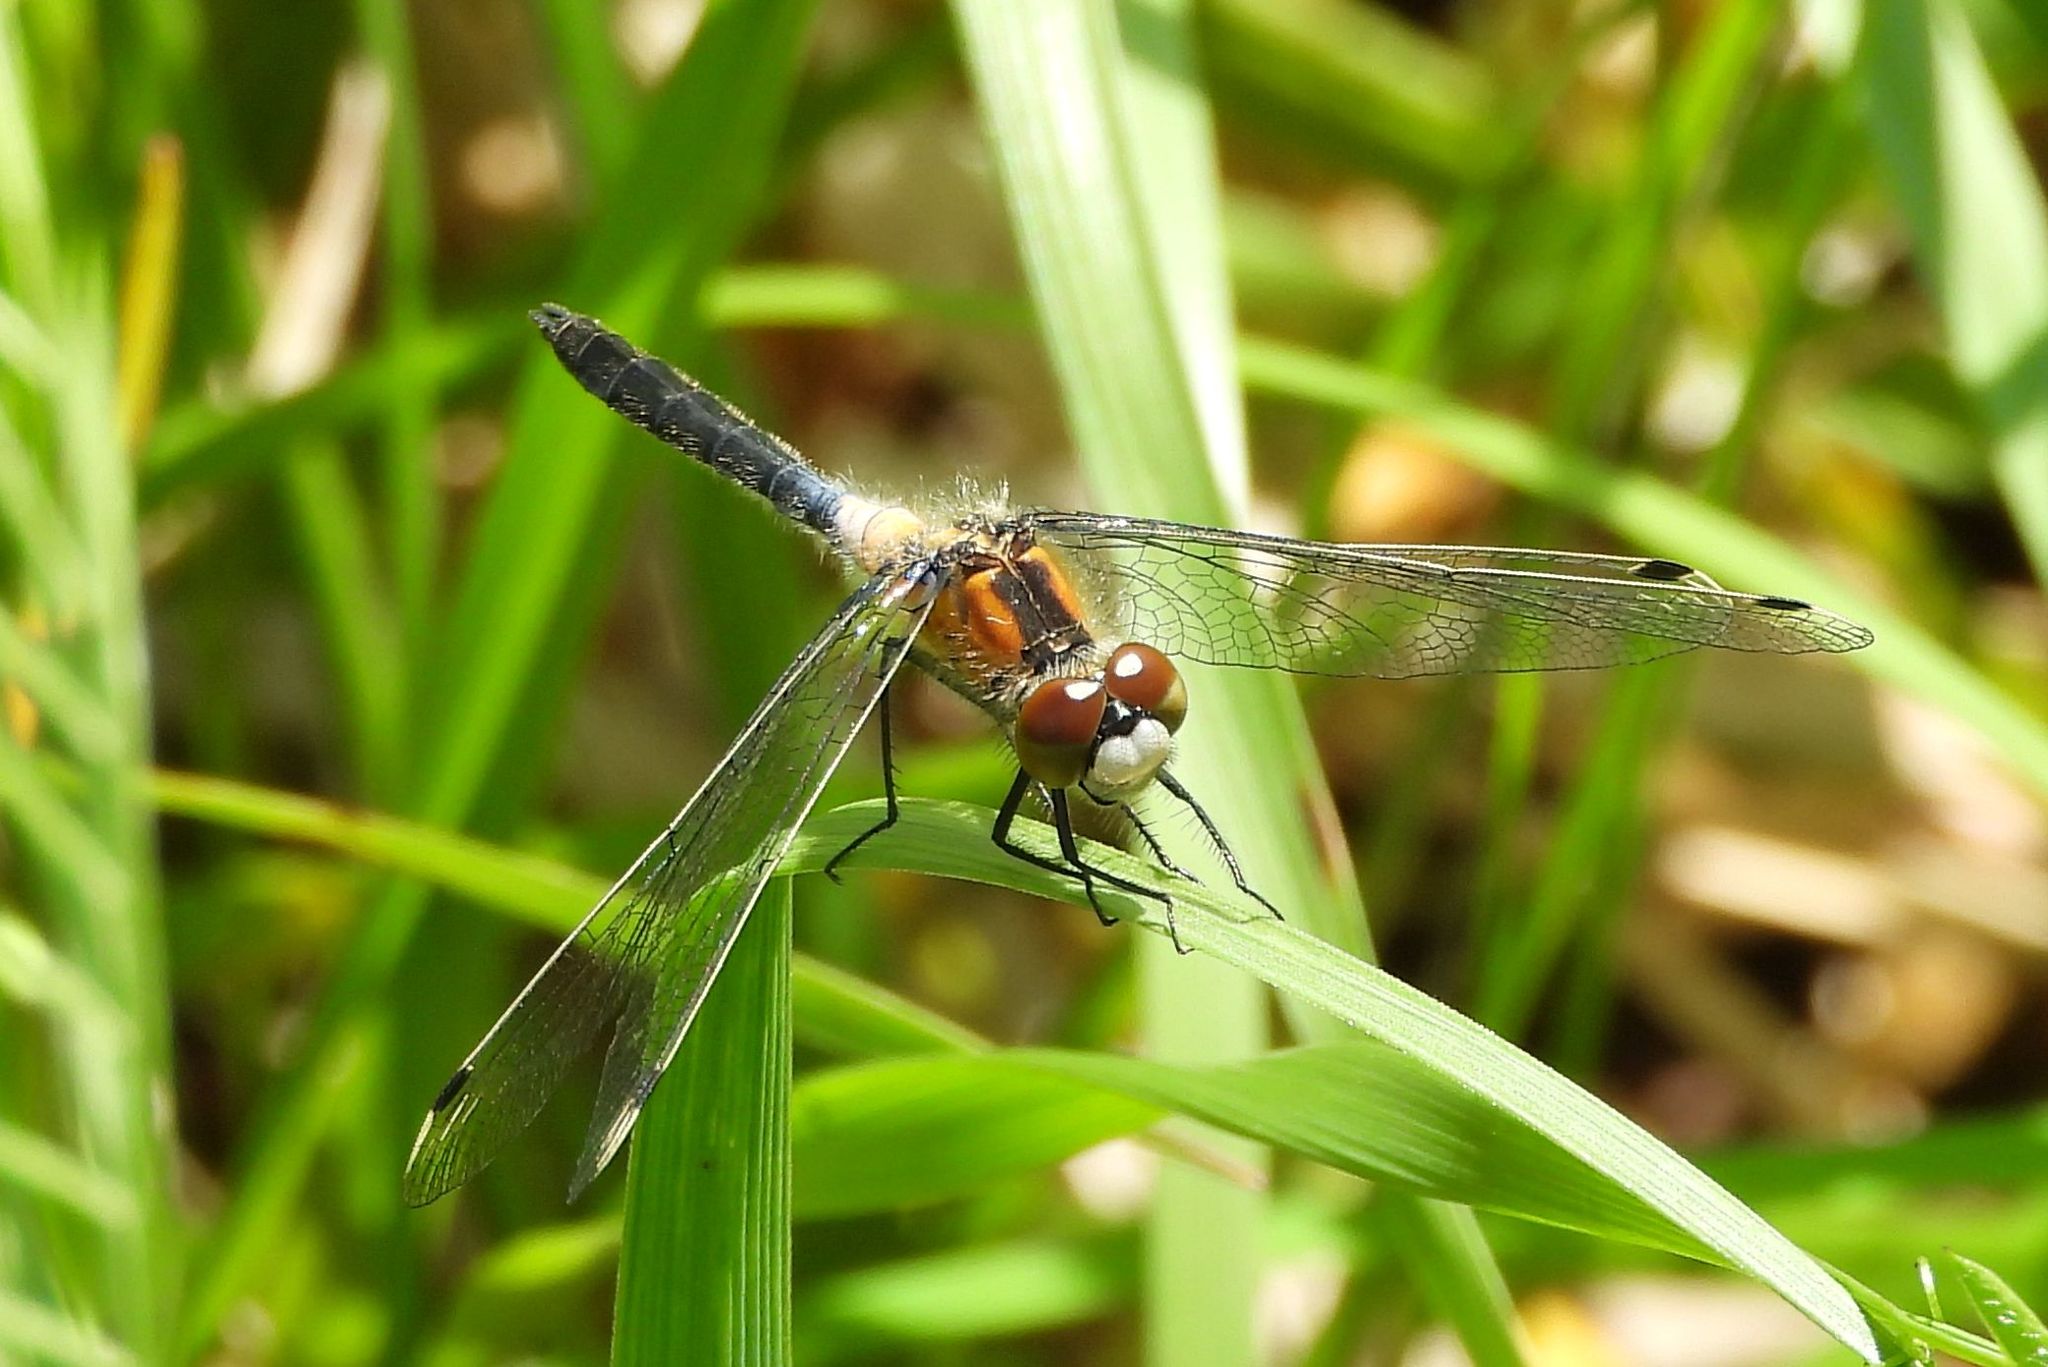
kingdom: Animalia
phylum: Arthropoda
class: Insecta
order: Odonata
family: Libellulidae
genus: Leucorrhinia
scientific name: Leucorrhinia frigida
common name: Frosted whiteface
